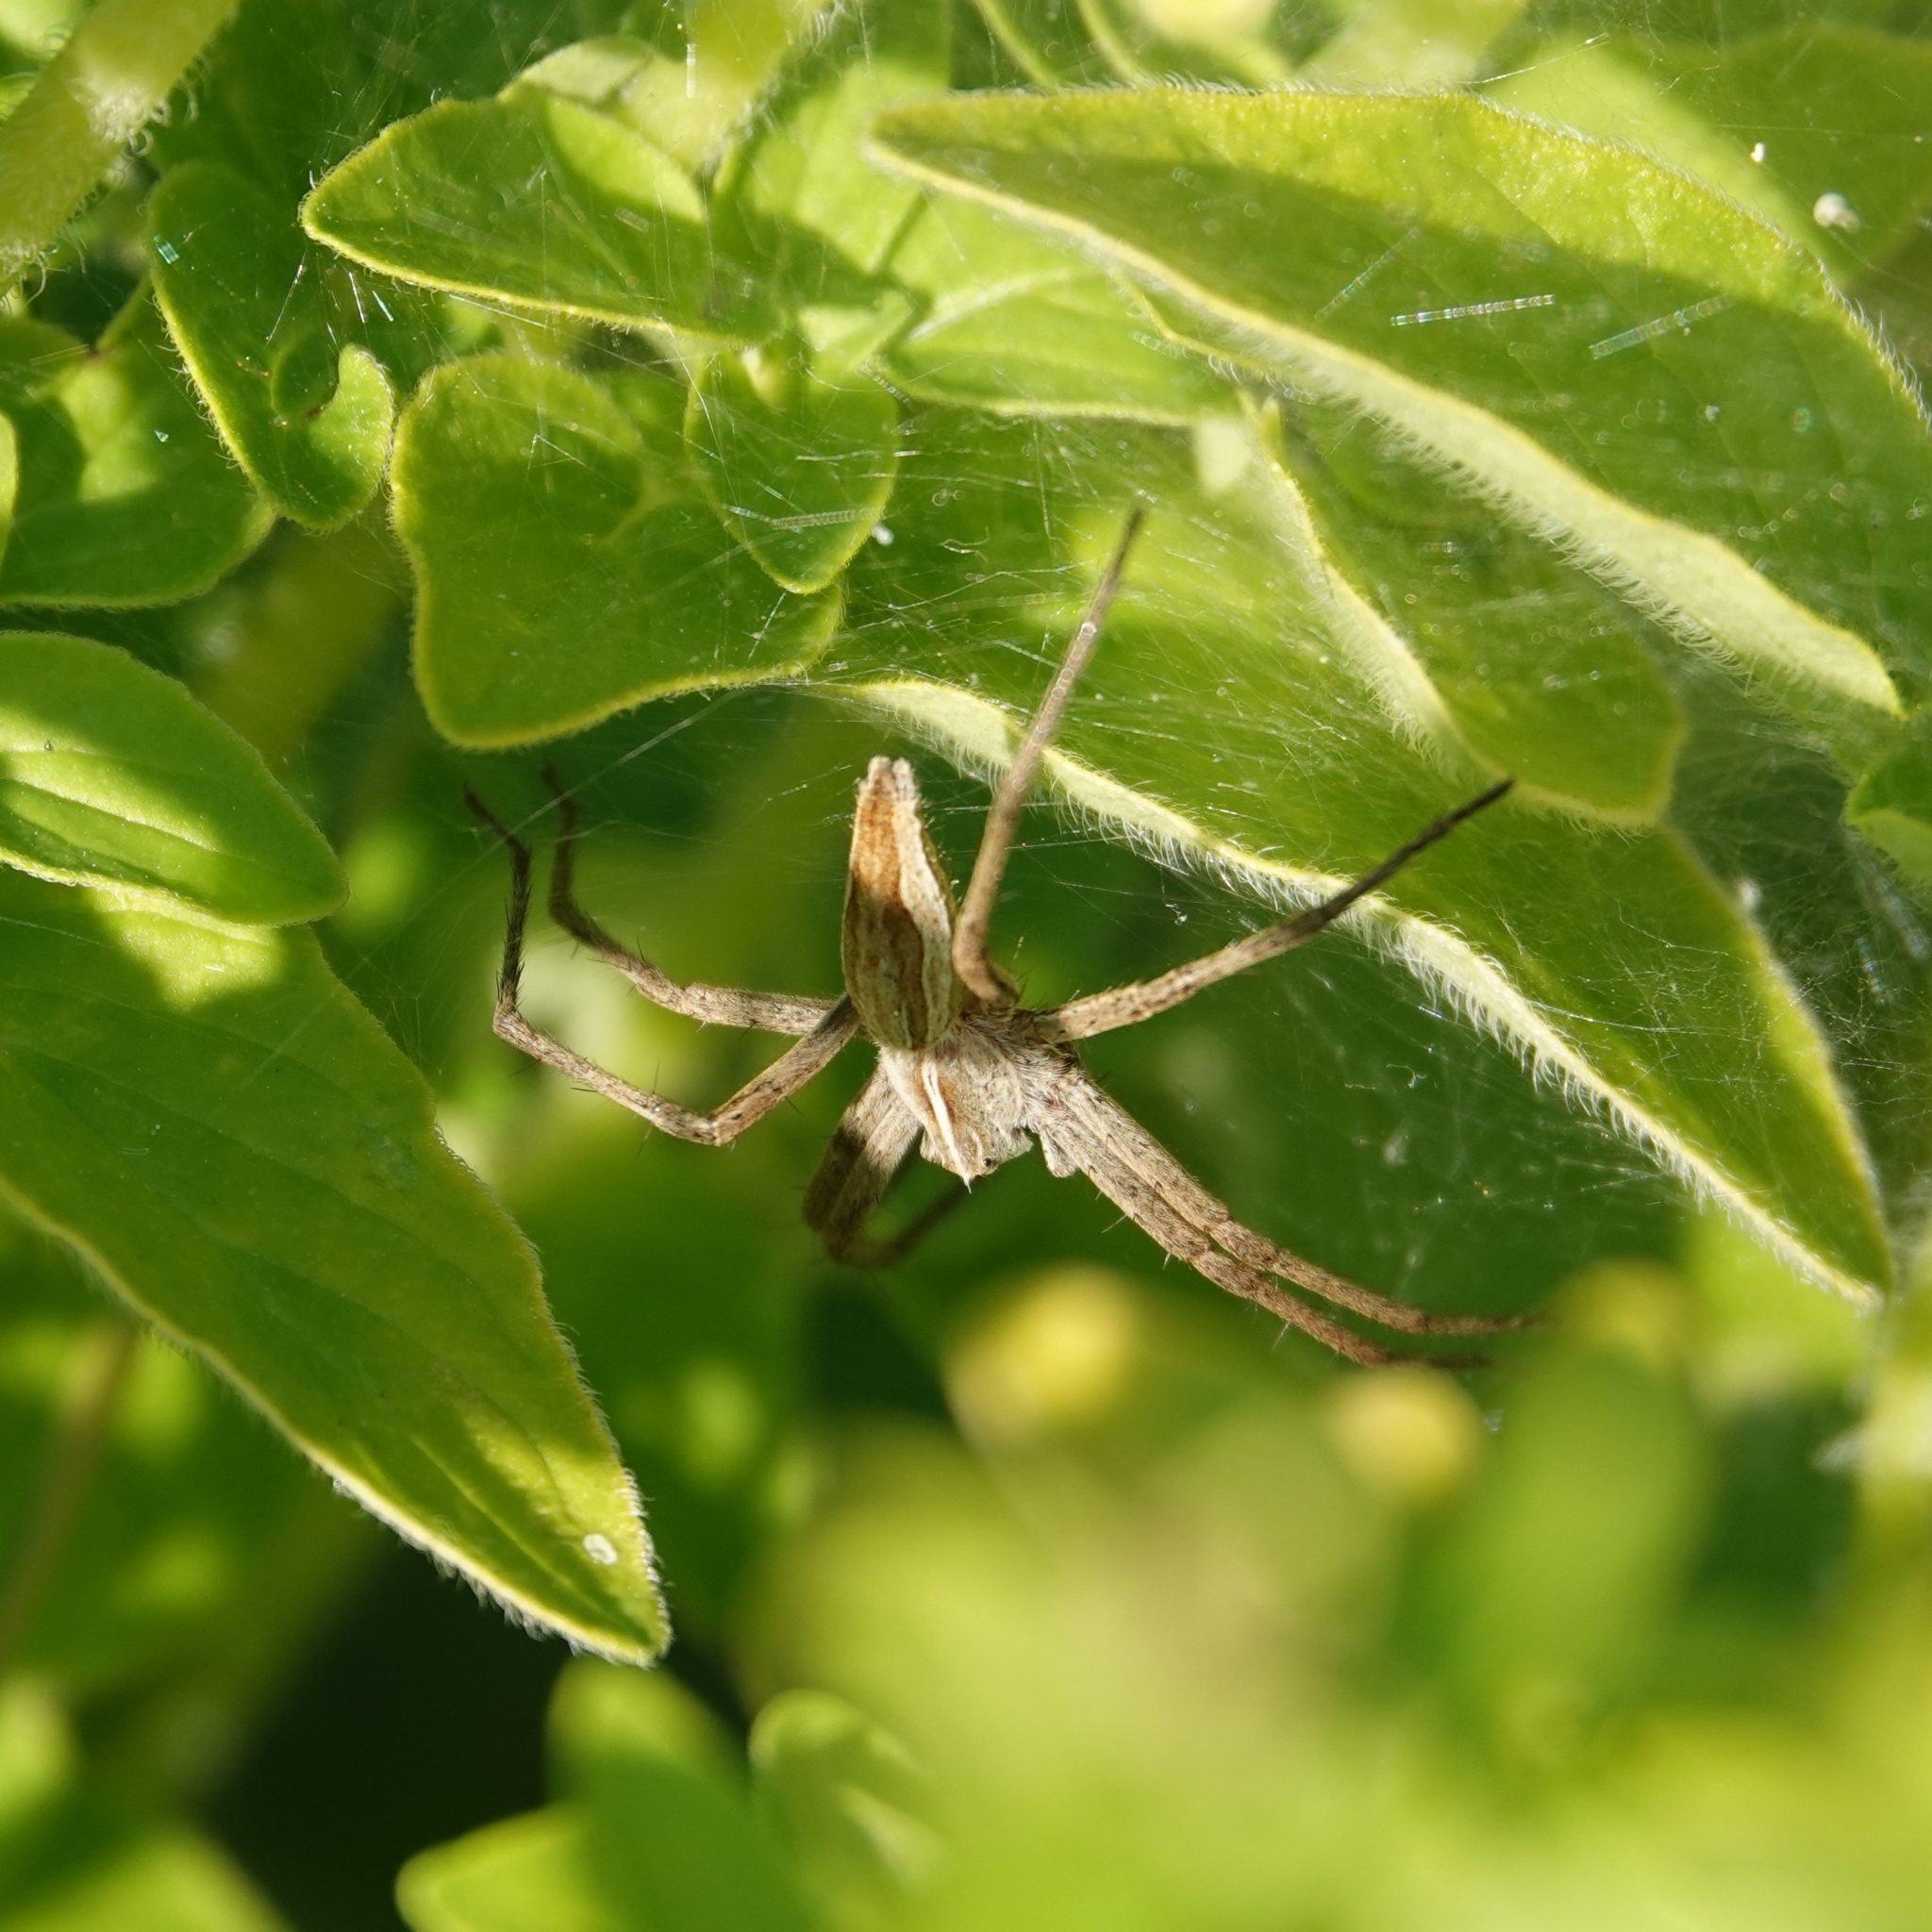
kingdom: Animalia
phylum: Arthropoda
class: Arachnida
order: Araneae
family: Pisauridae
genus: Pisaura
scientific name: Pisaura mirabilis
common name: Tent spider
